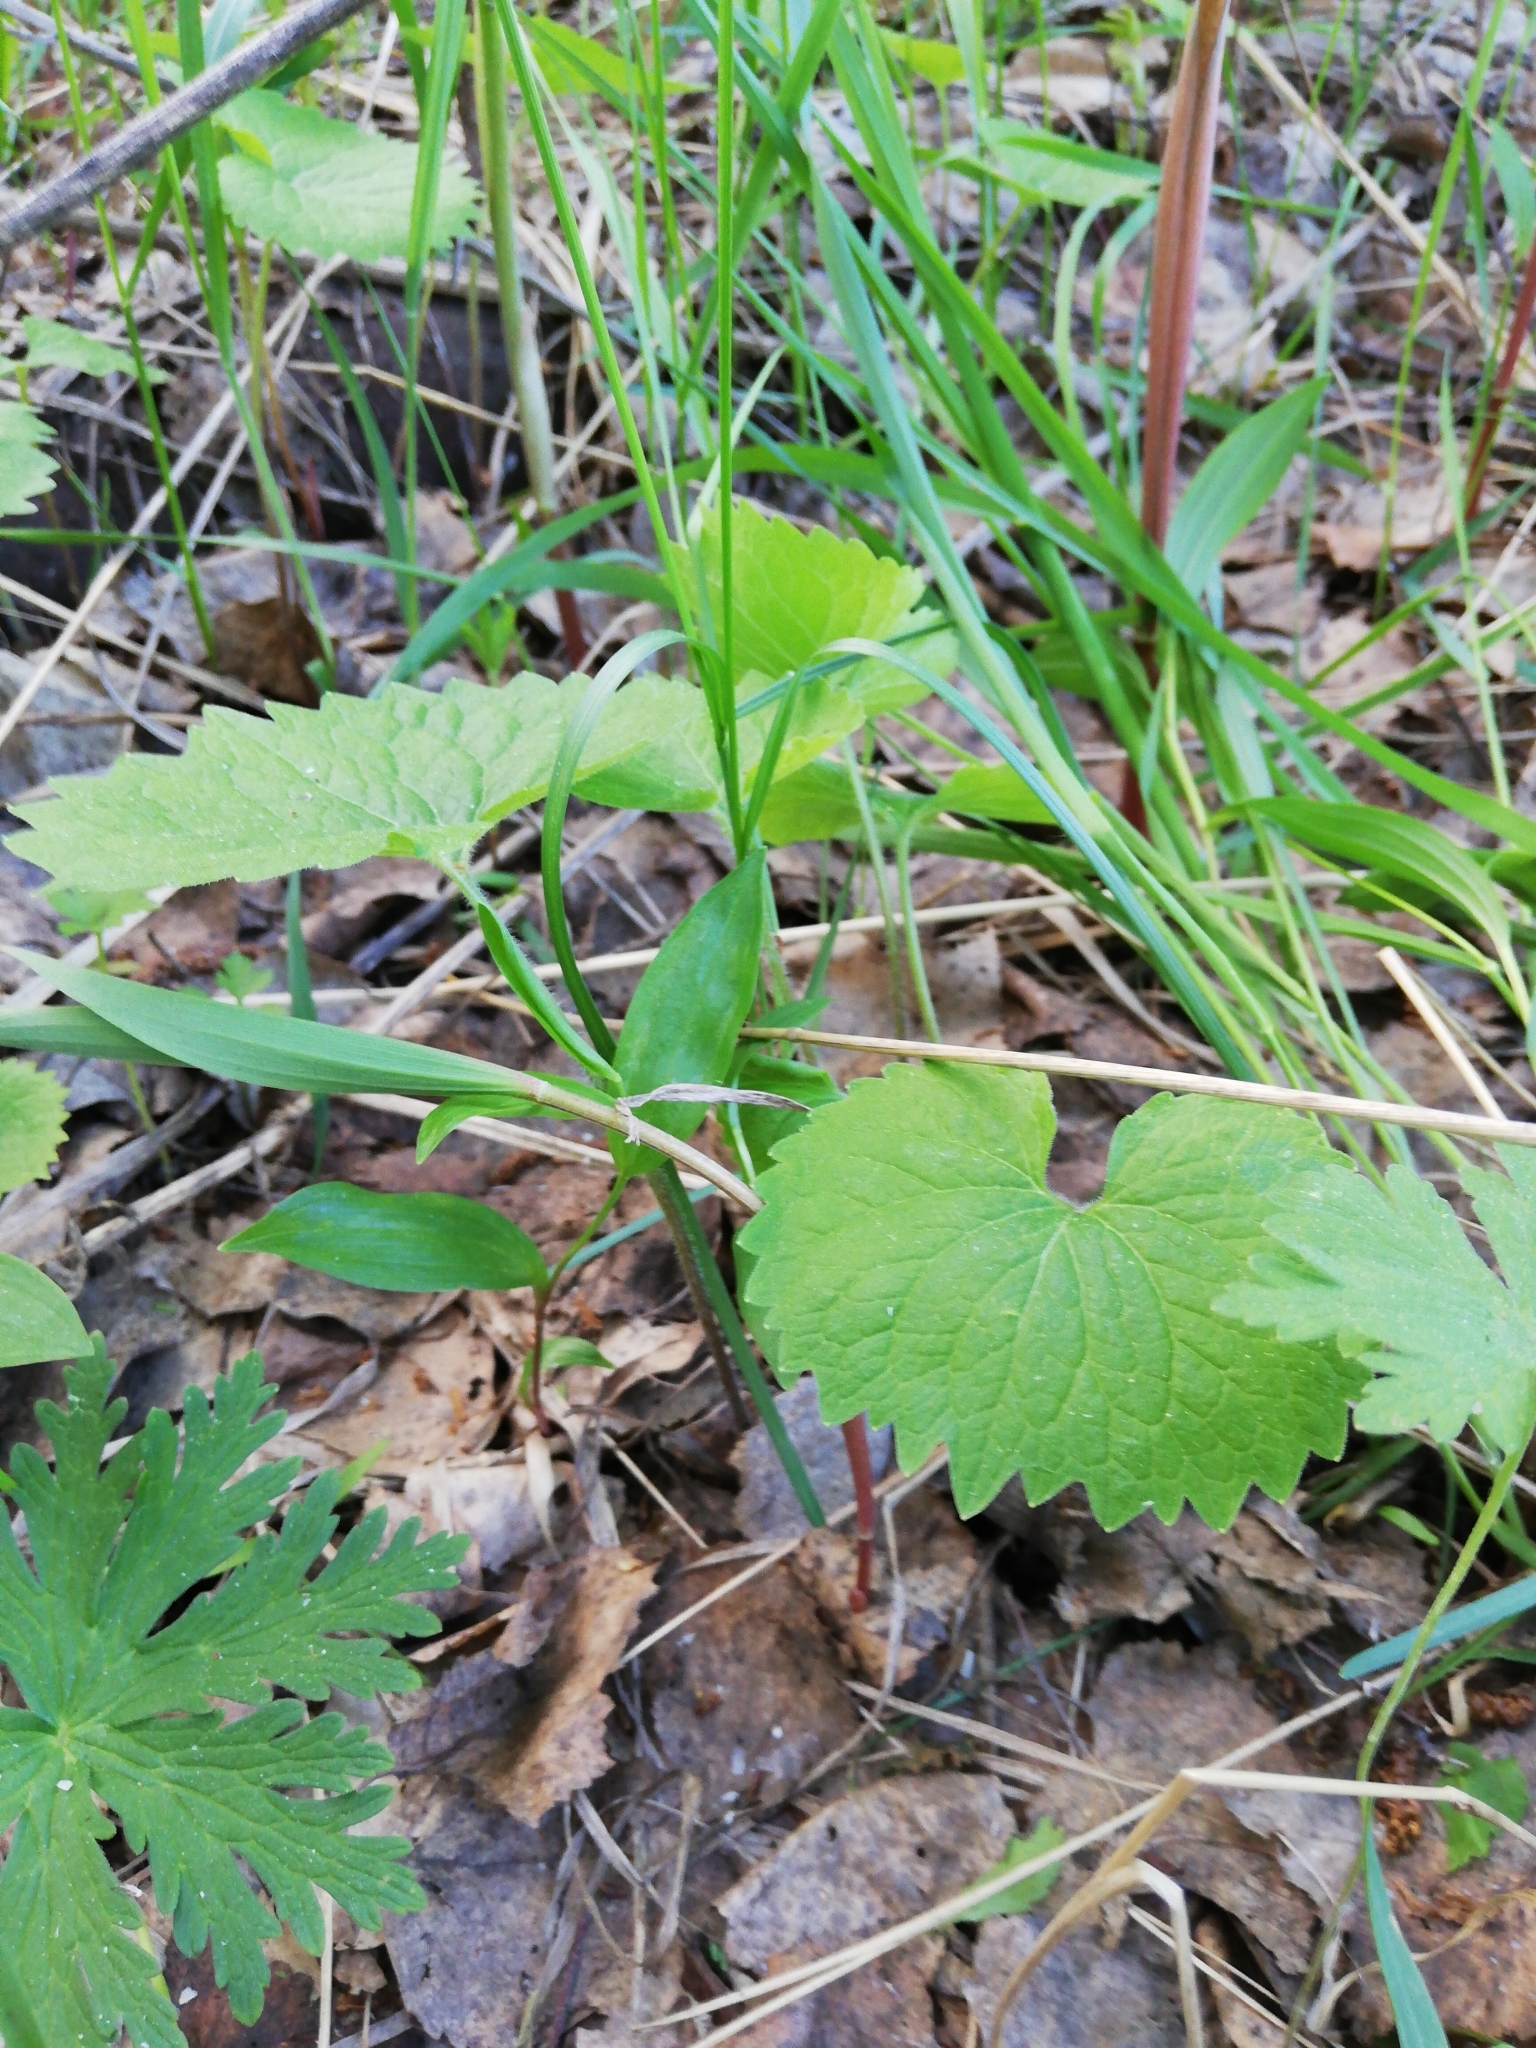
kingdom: Plantae
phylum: Tracheophyta
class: Magnoliopsida
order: Malpighiales
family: Violaceae
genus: Viola
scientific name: Viola uniflora
